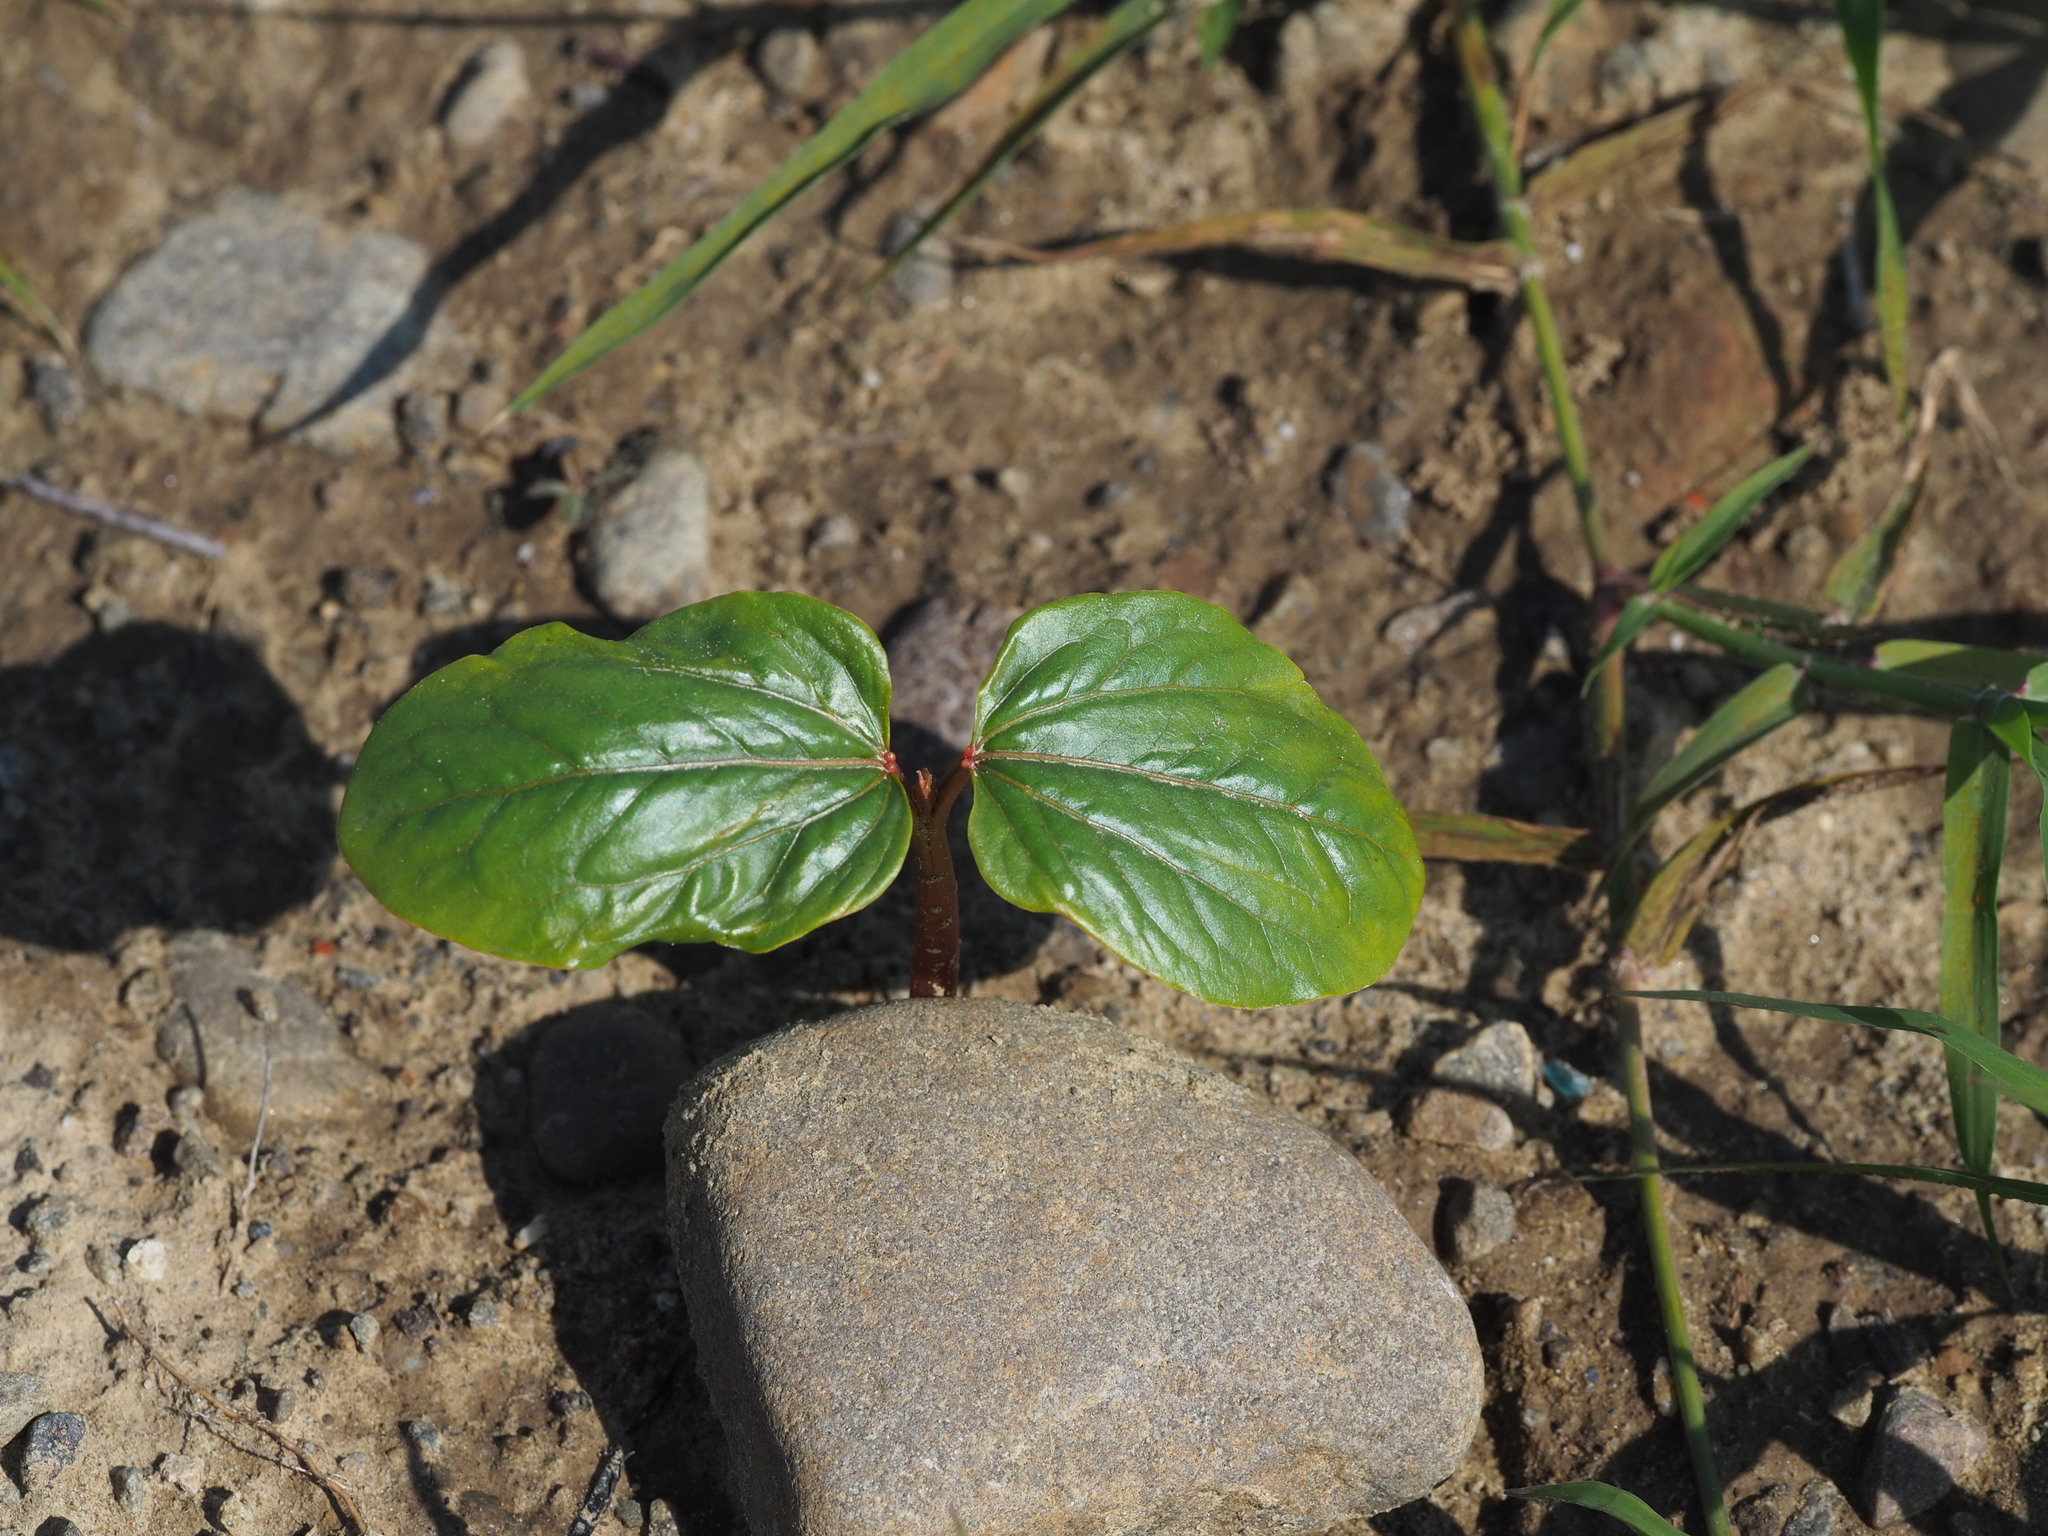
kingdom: Plantae
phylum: Tracheophyta
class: Magnoliopsida
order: Malpighiales
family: Euphorbiaceae
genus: Ricinus
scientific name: Ricinus communis
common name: Castor-oil-plant
